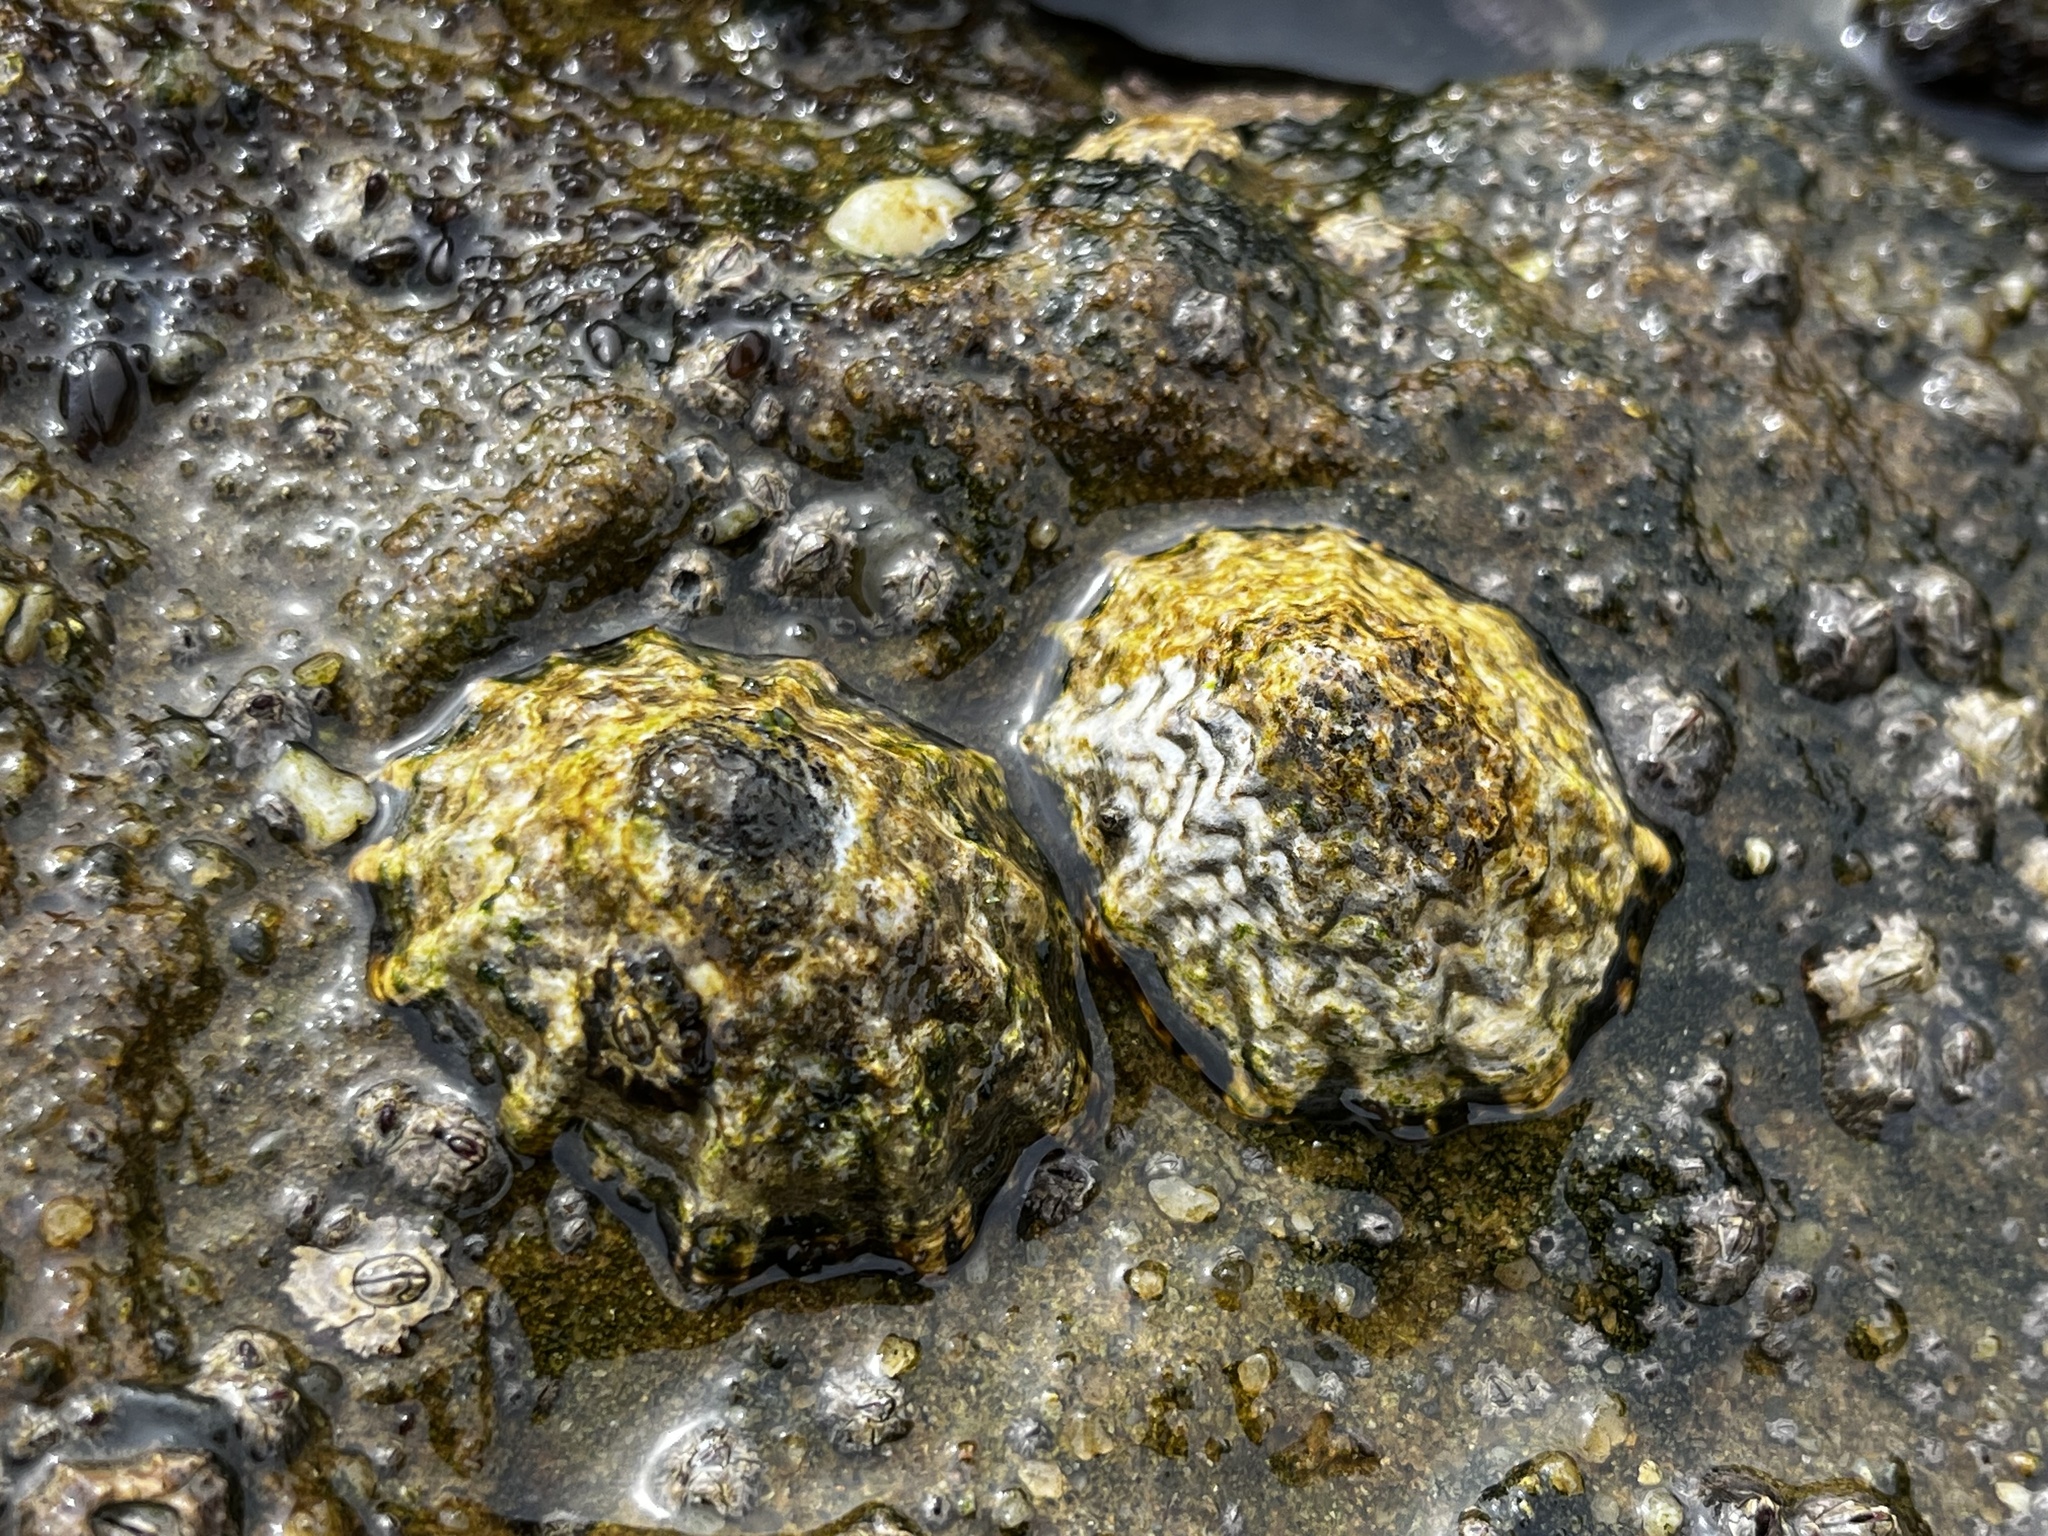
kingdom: Animalia
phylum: Mollusca
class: Gastropoda
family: Lottiidae
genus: Scurria
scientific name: Scurria zebrina
